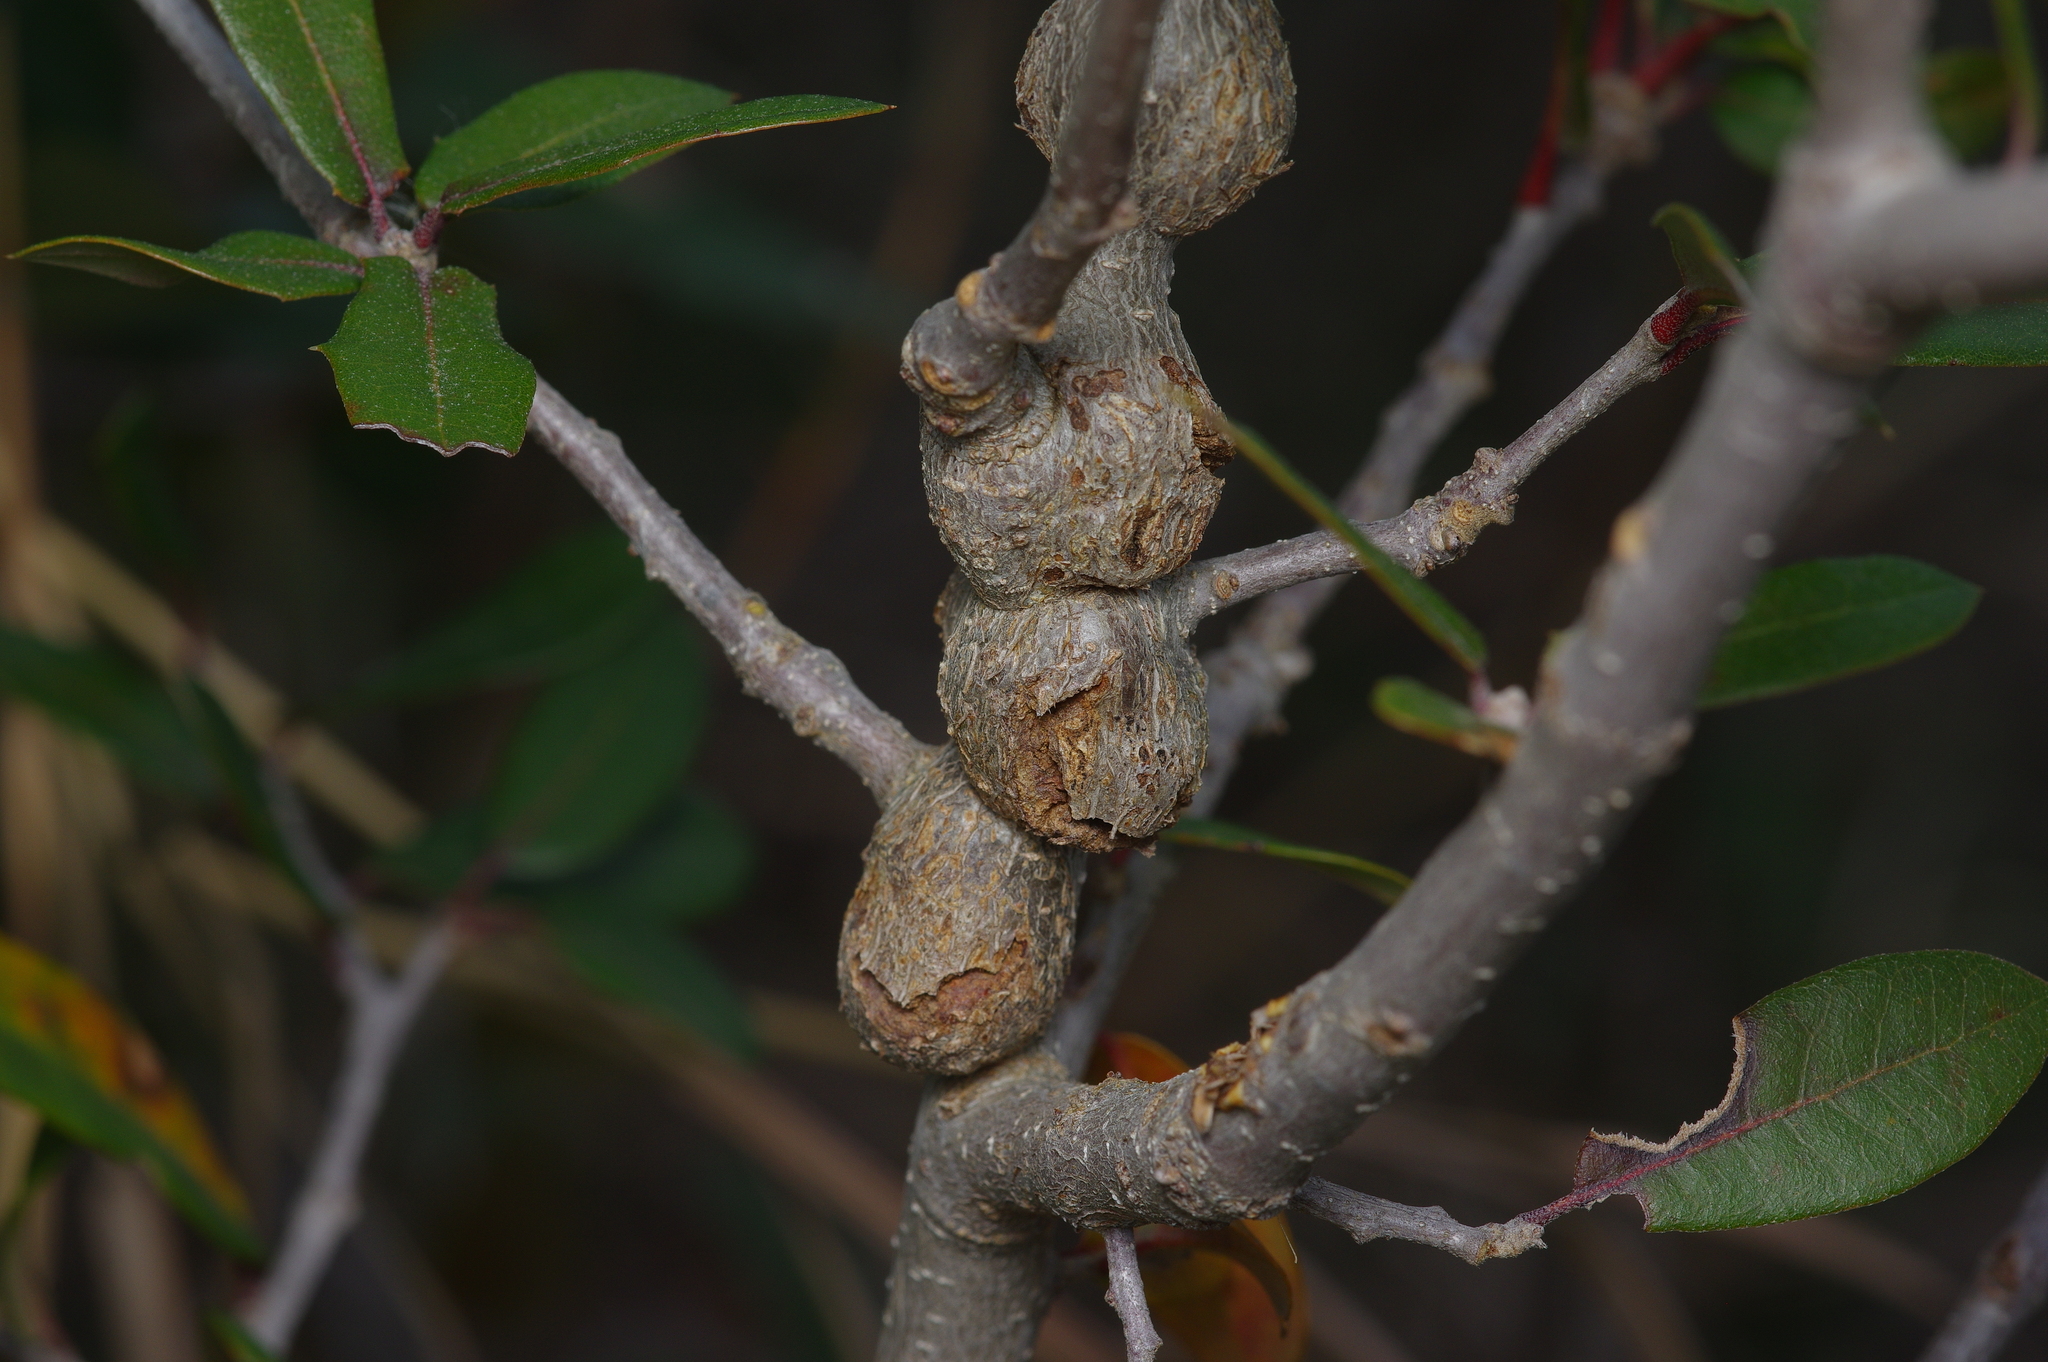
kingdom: Animalia
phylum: Arthropoda
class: Insecta
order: Hymenoptera
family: Cynipidae
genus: Callirhytis
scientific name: Callirhytis
